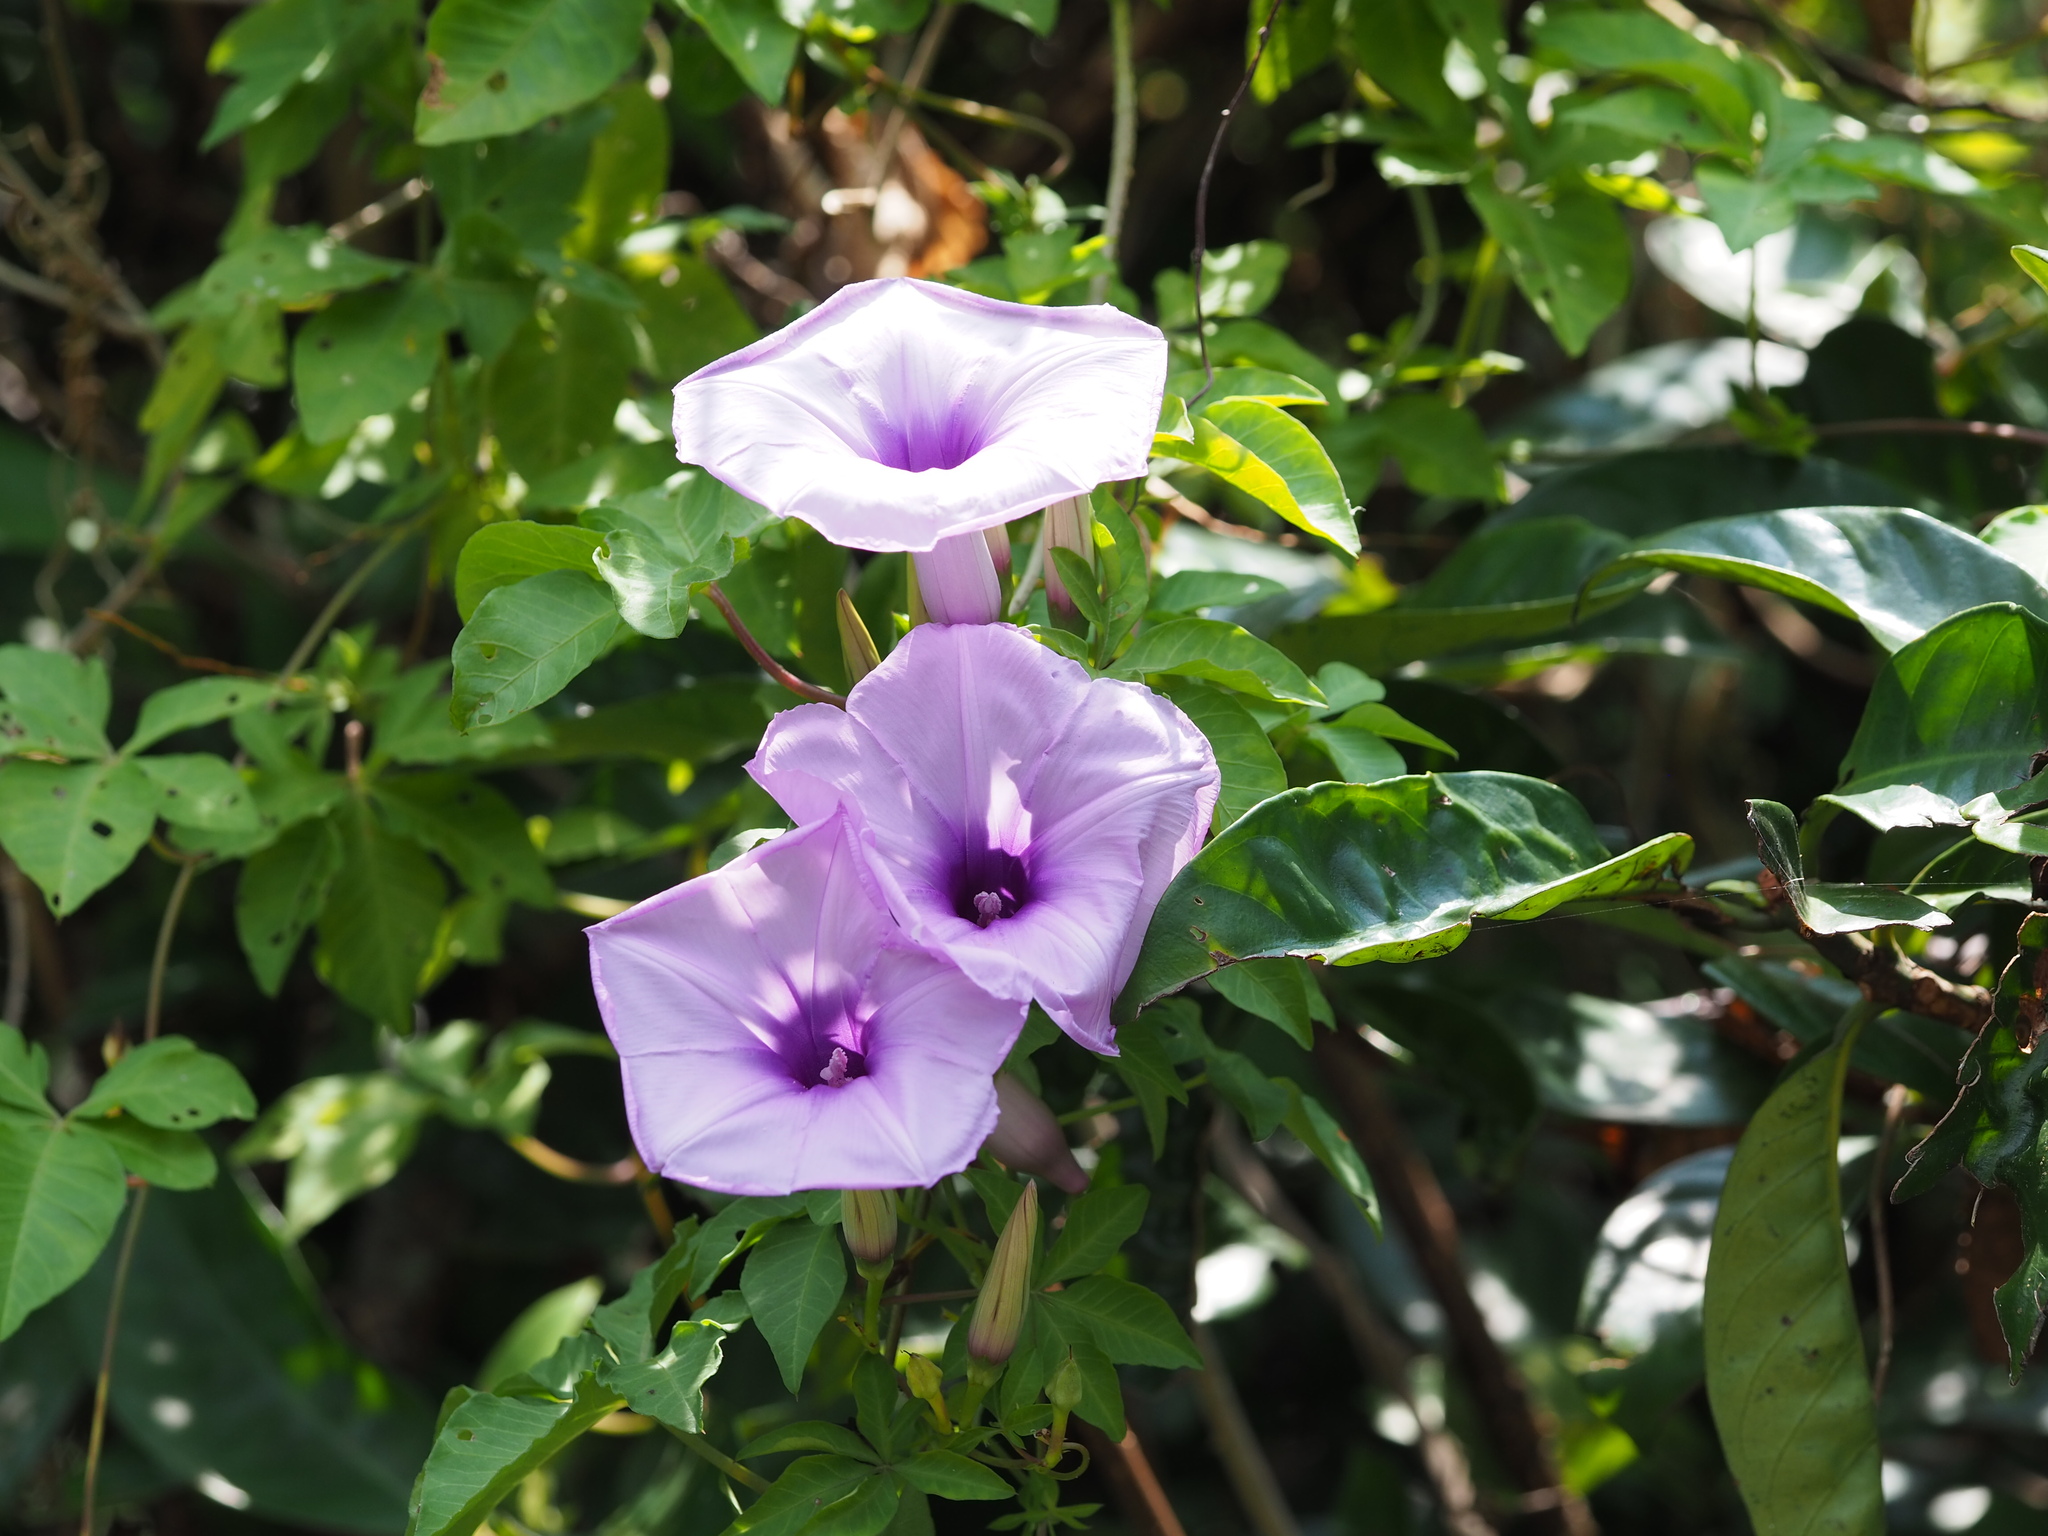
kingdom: Plantae
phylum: Tracheophyta
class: Magnoliopsida
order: Solanales
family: Convolvulaceae
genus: Ipomoea
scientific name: Ipomoea cairica
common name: Mile a minute vine
